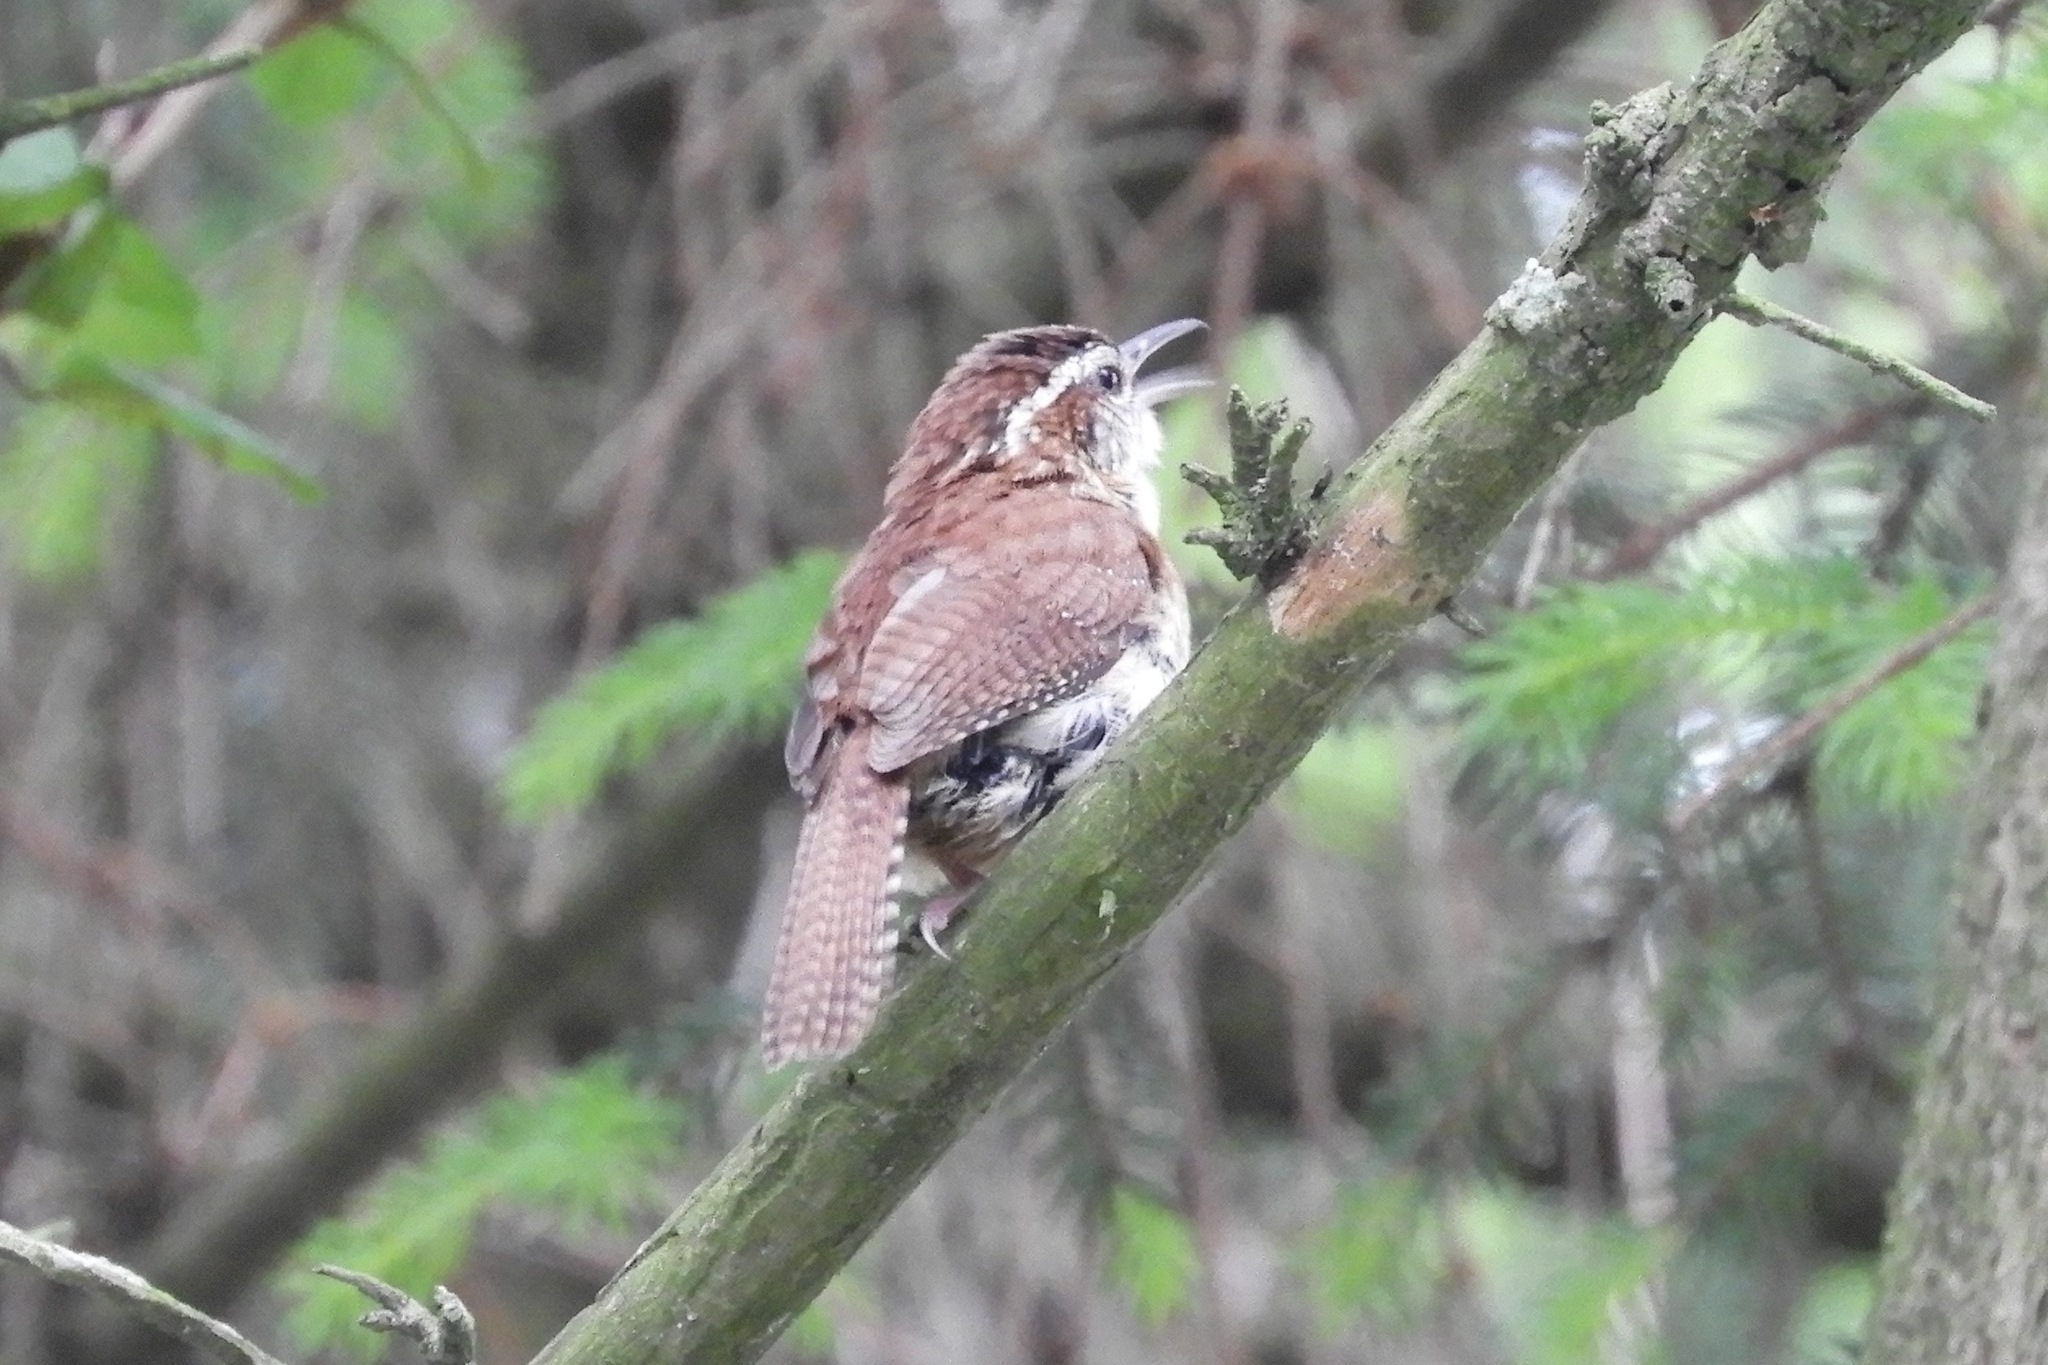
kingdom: Animalia
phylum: Chordata
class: Aves
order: Passeriformes
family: Troglodytidae
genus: Thryothorus
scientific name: Thryothorus ludovicianus
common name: Carolina wren
